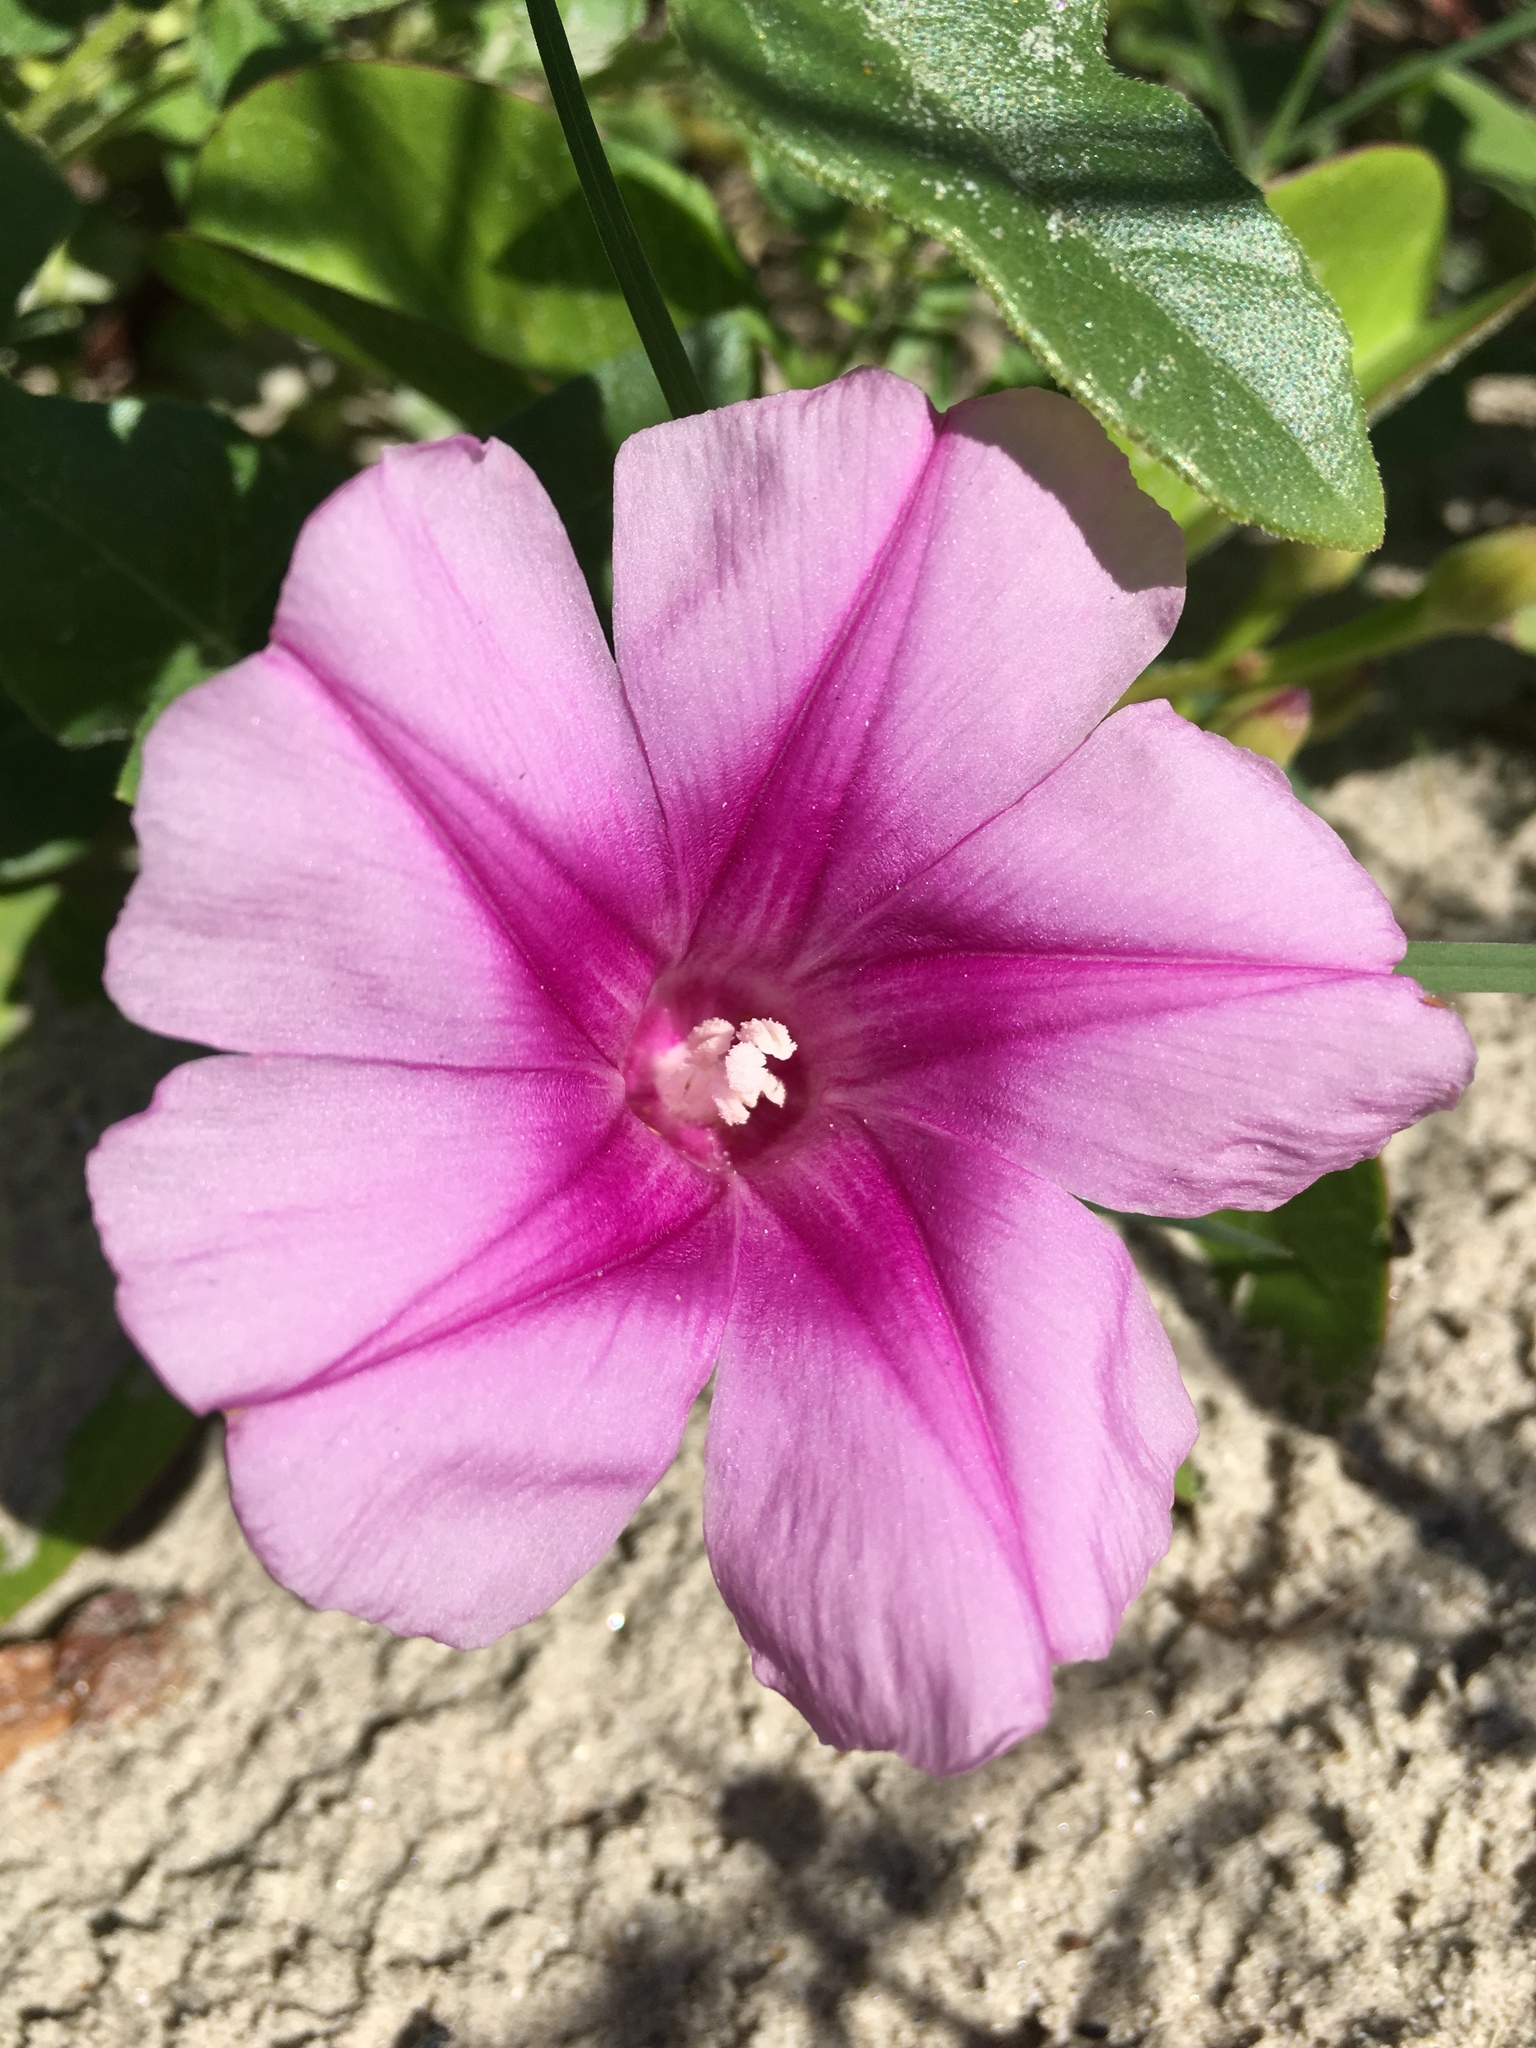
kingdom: Plantae
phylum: Tracheophyta
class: Magnoliopsida
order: Solanales
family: Convolvulaceae
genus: Ipomoea
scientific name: Ipomoea pes-caprae
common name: Beach morning glory
